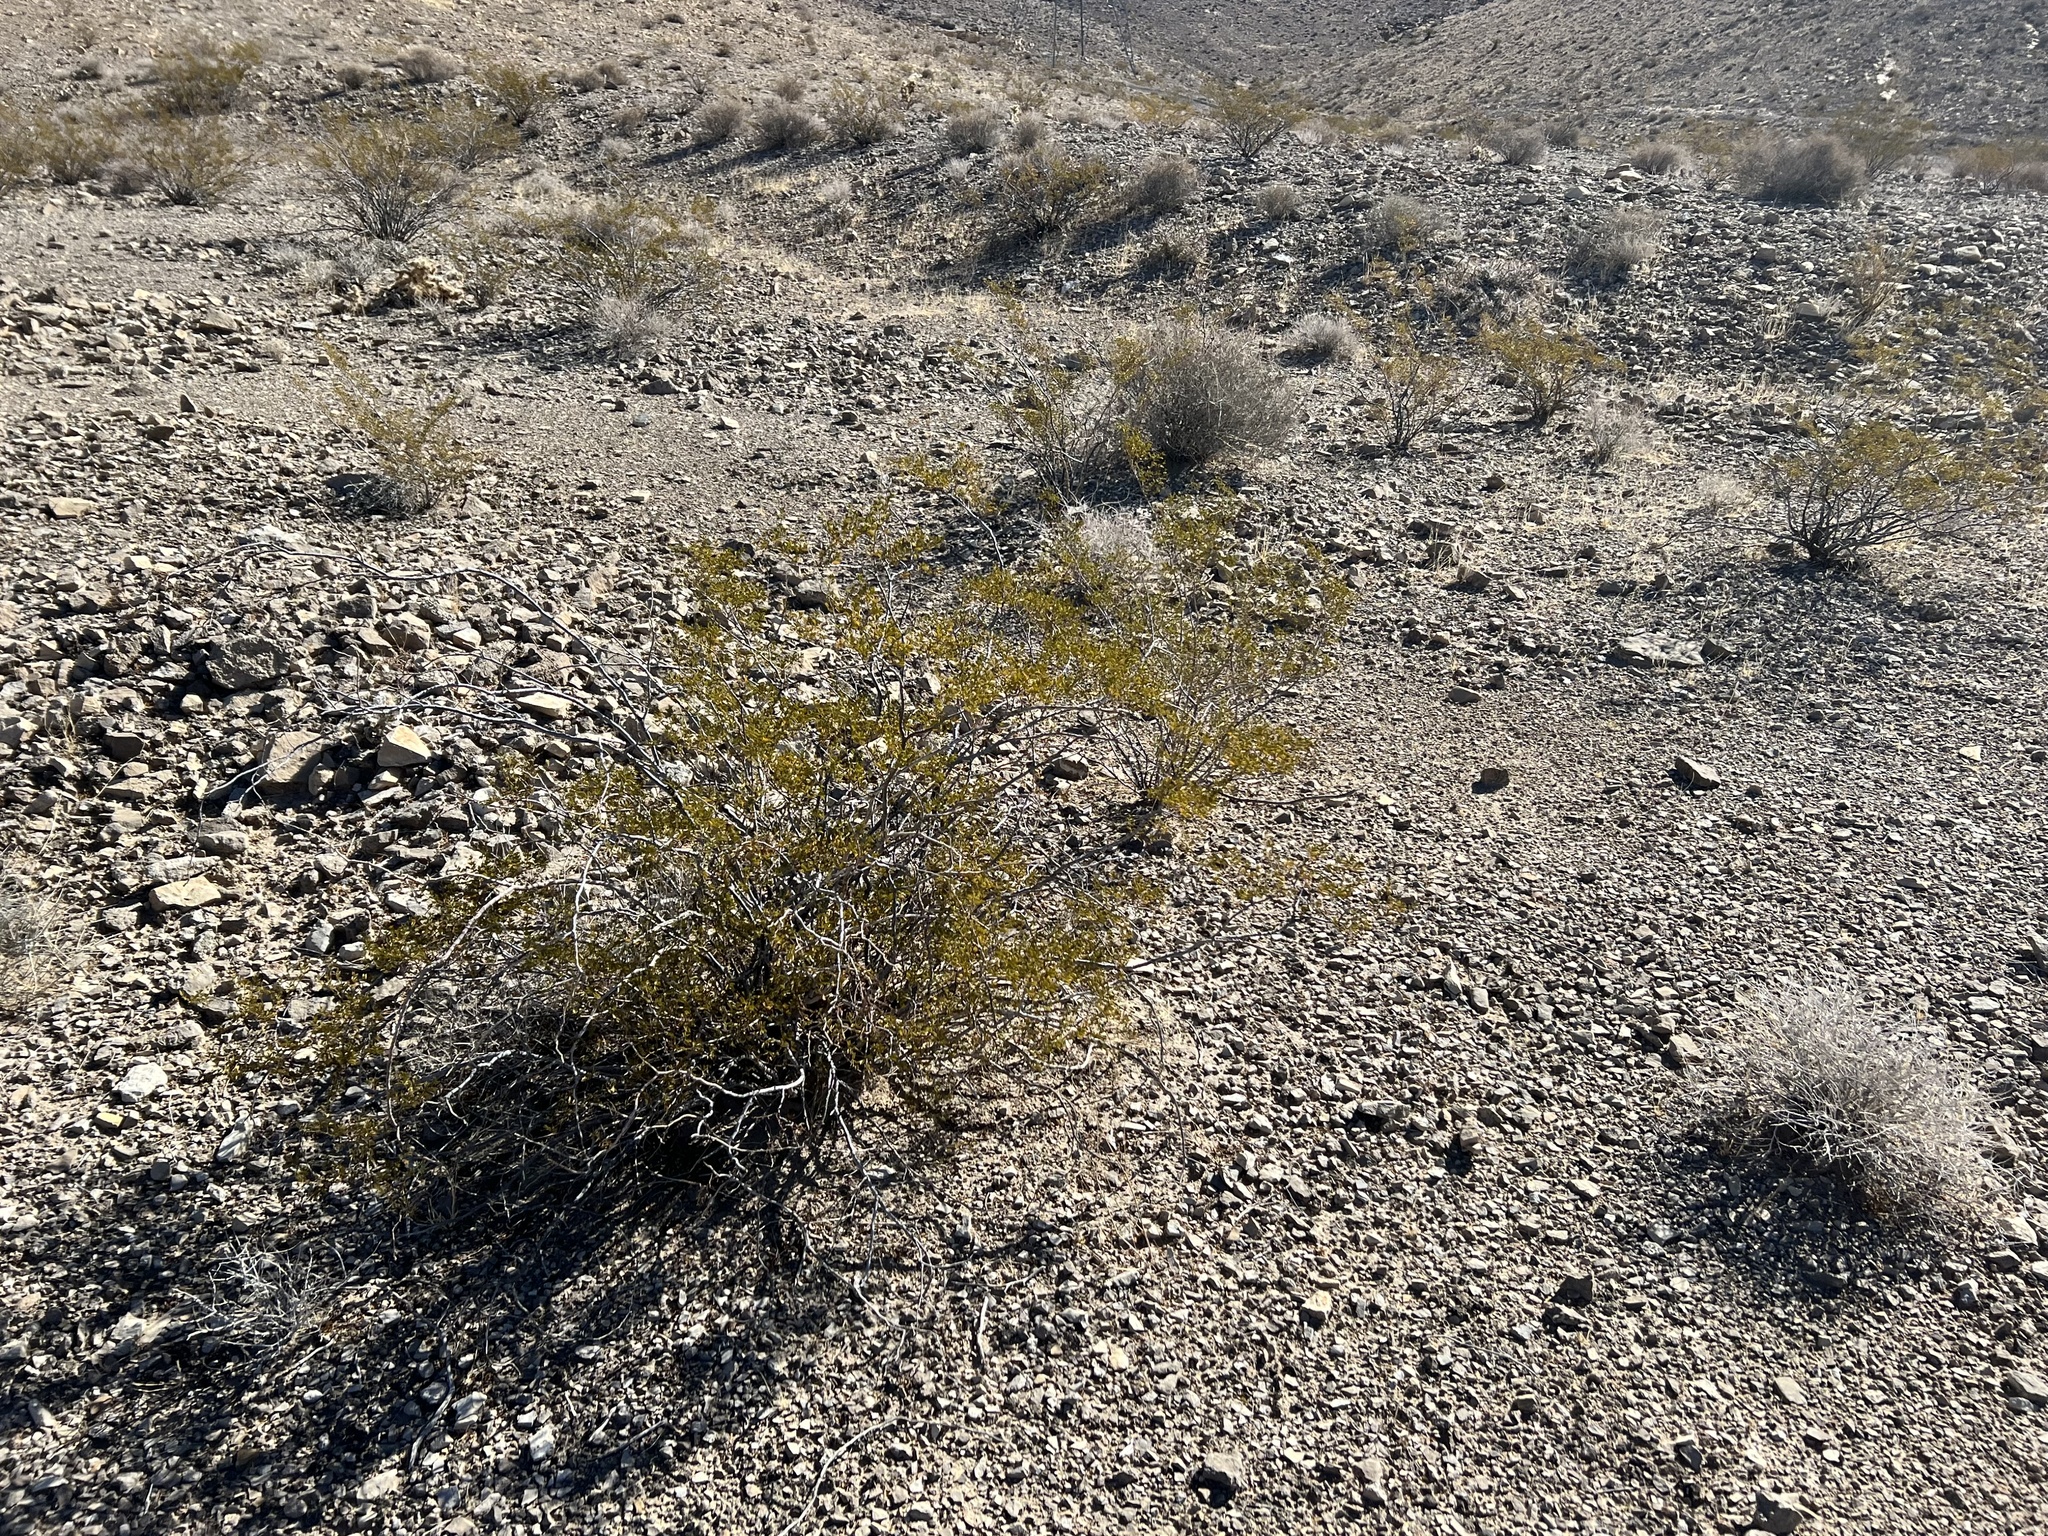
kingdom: Plantae
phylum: Tracheophyta
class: Magnoliopsida
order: Zygophyllales
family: Zygophyllaceae
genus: Larrea
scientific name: Larrea tridentata
